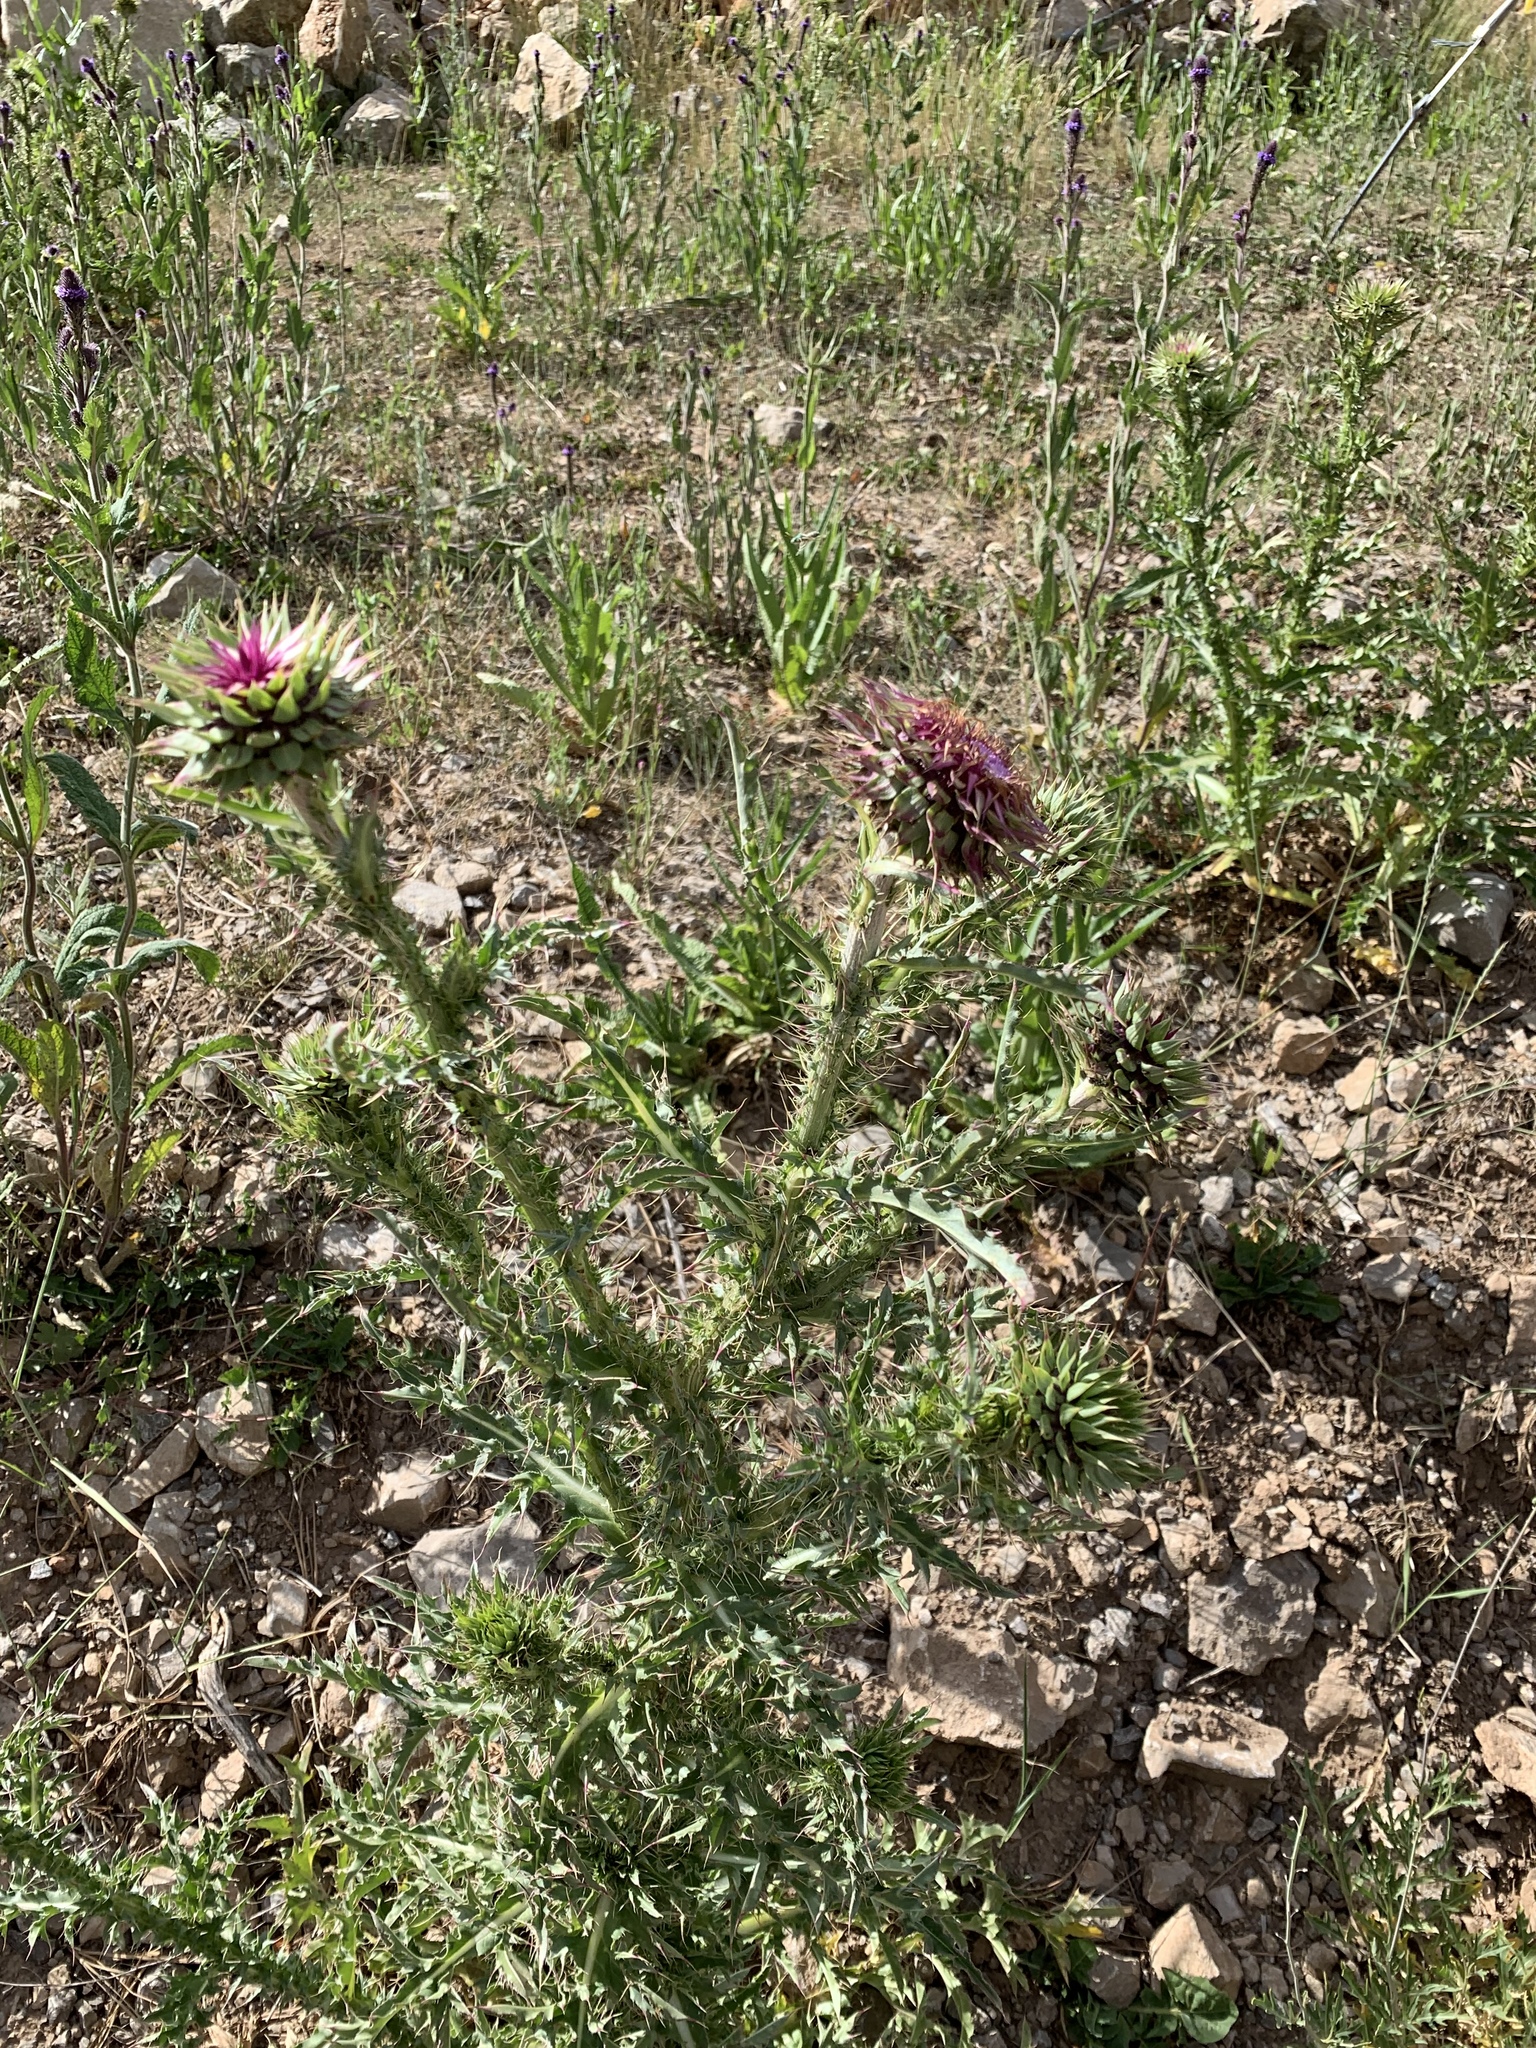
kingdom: Plantae
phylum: Tracheophyta
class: Magnoliopsida
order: Asterales
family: Asteraceae
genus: Carduus
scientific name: Carduus nutans
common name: Musk thistle
